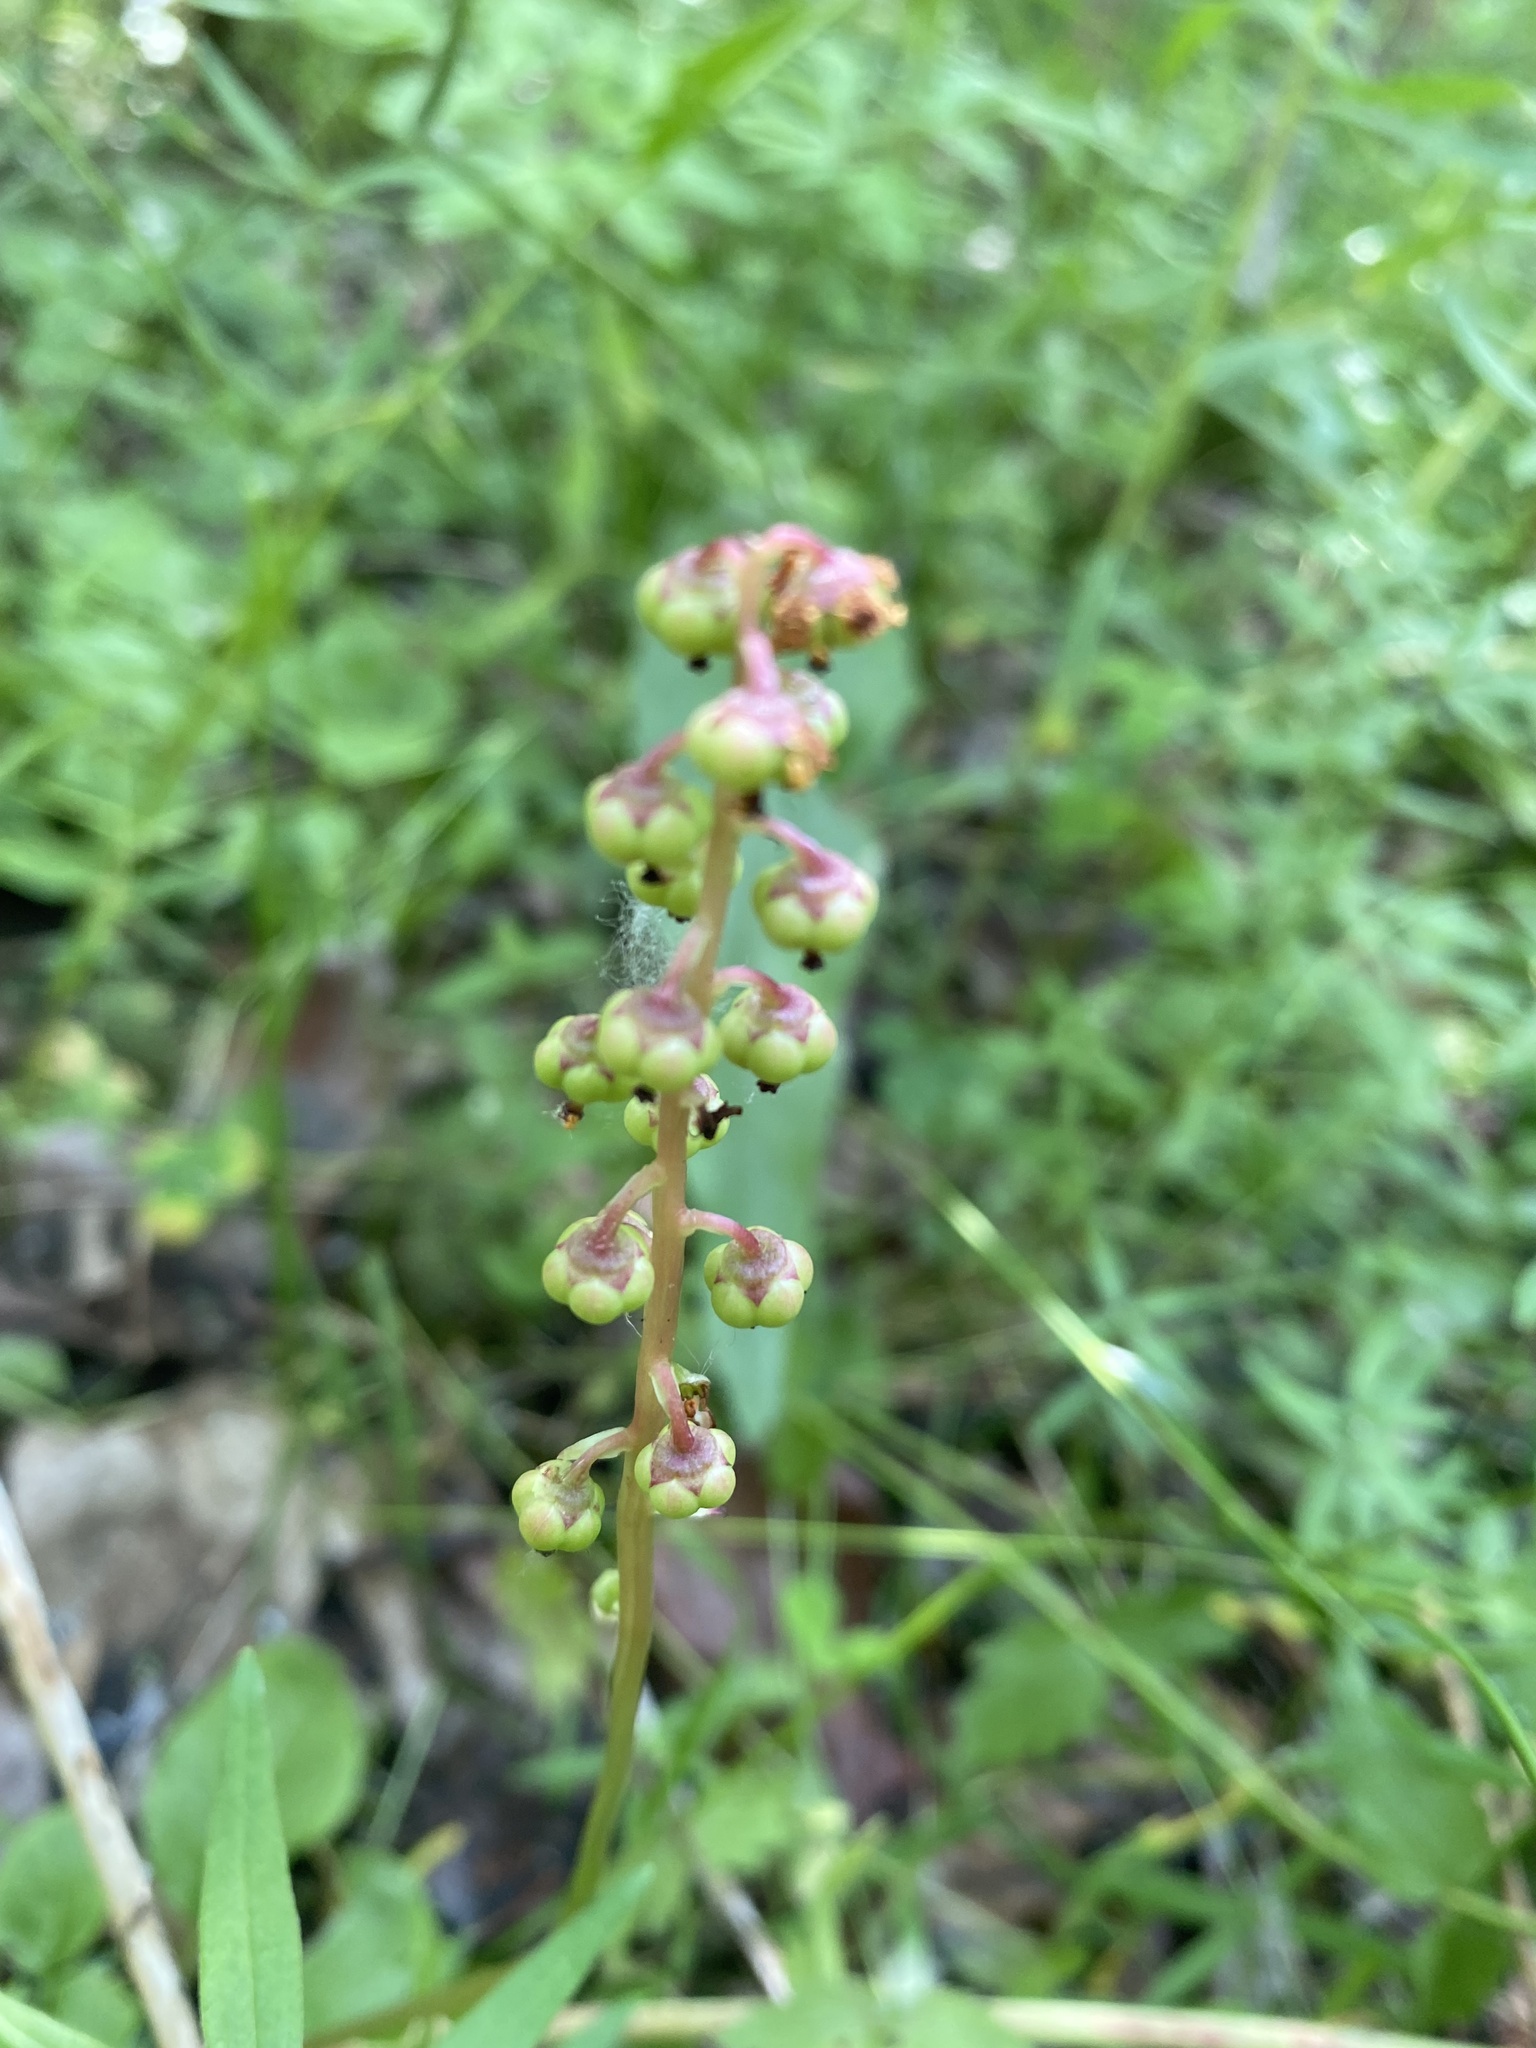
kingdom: Plantae
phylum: Tracheophyta
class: Magnoliopsida
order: Ericales
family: Ericaceae
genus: Pyrola
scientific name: Pyrola minor
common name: Common wintergreen
